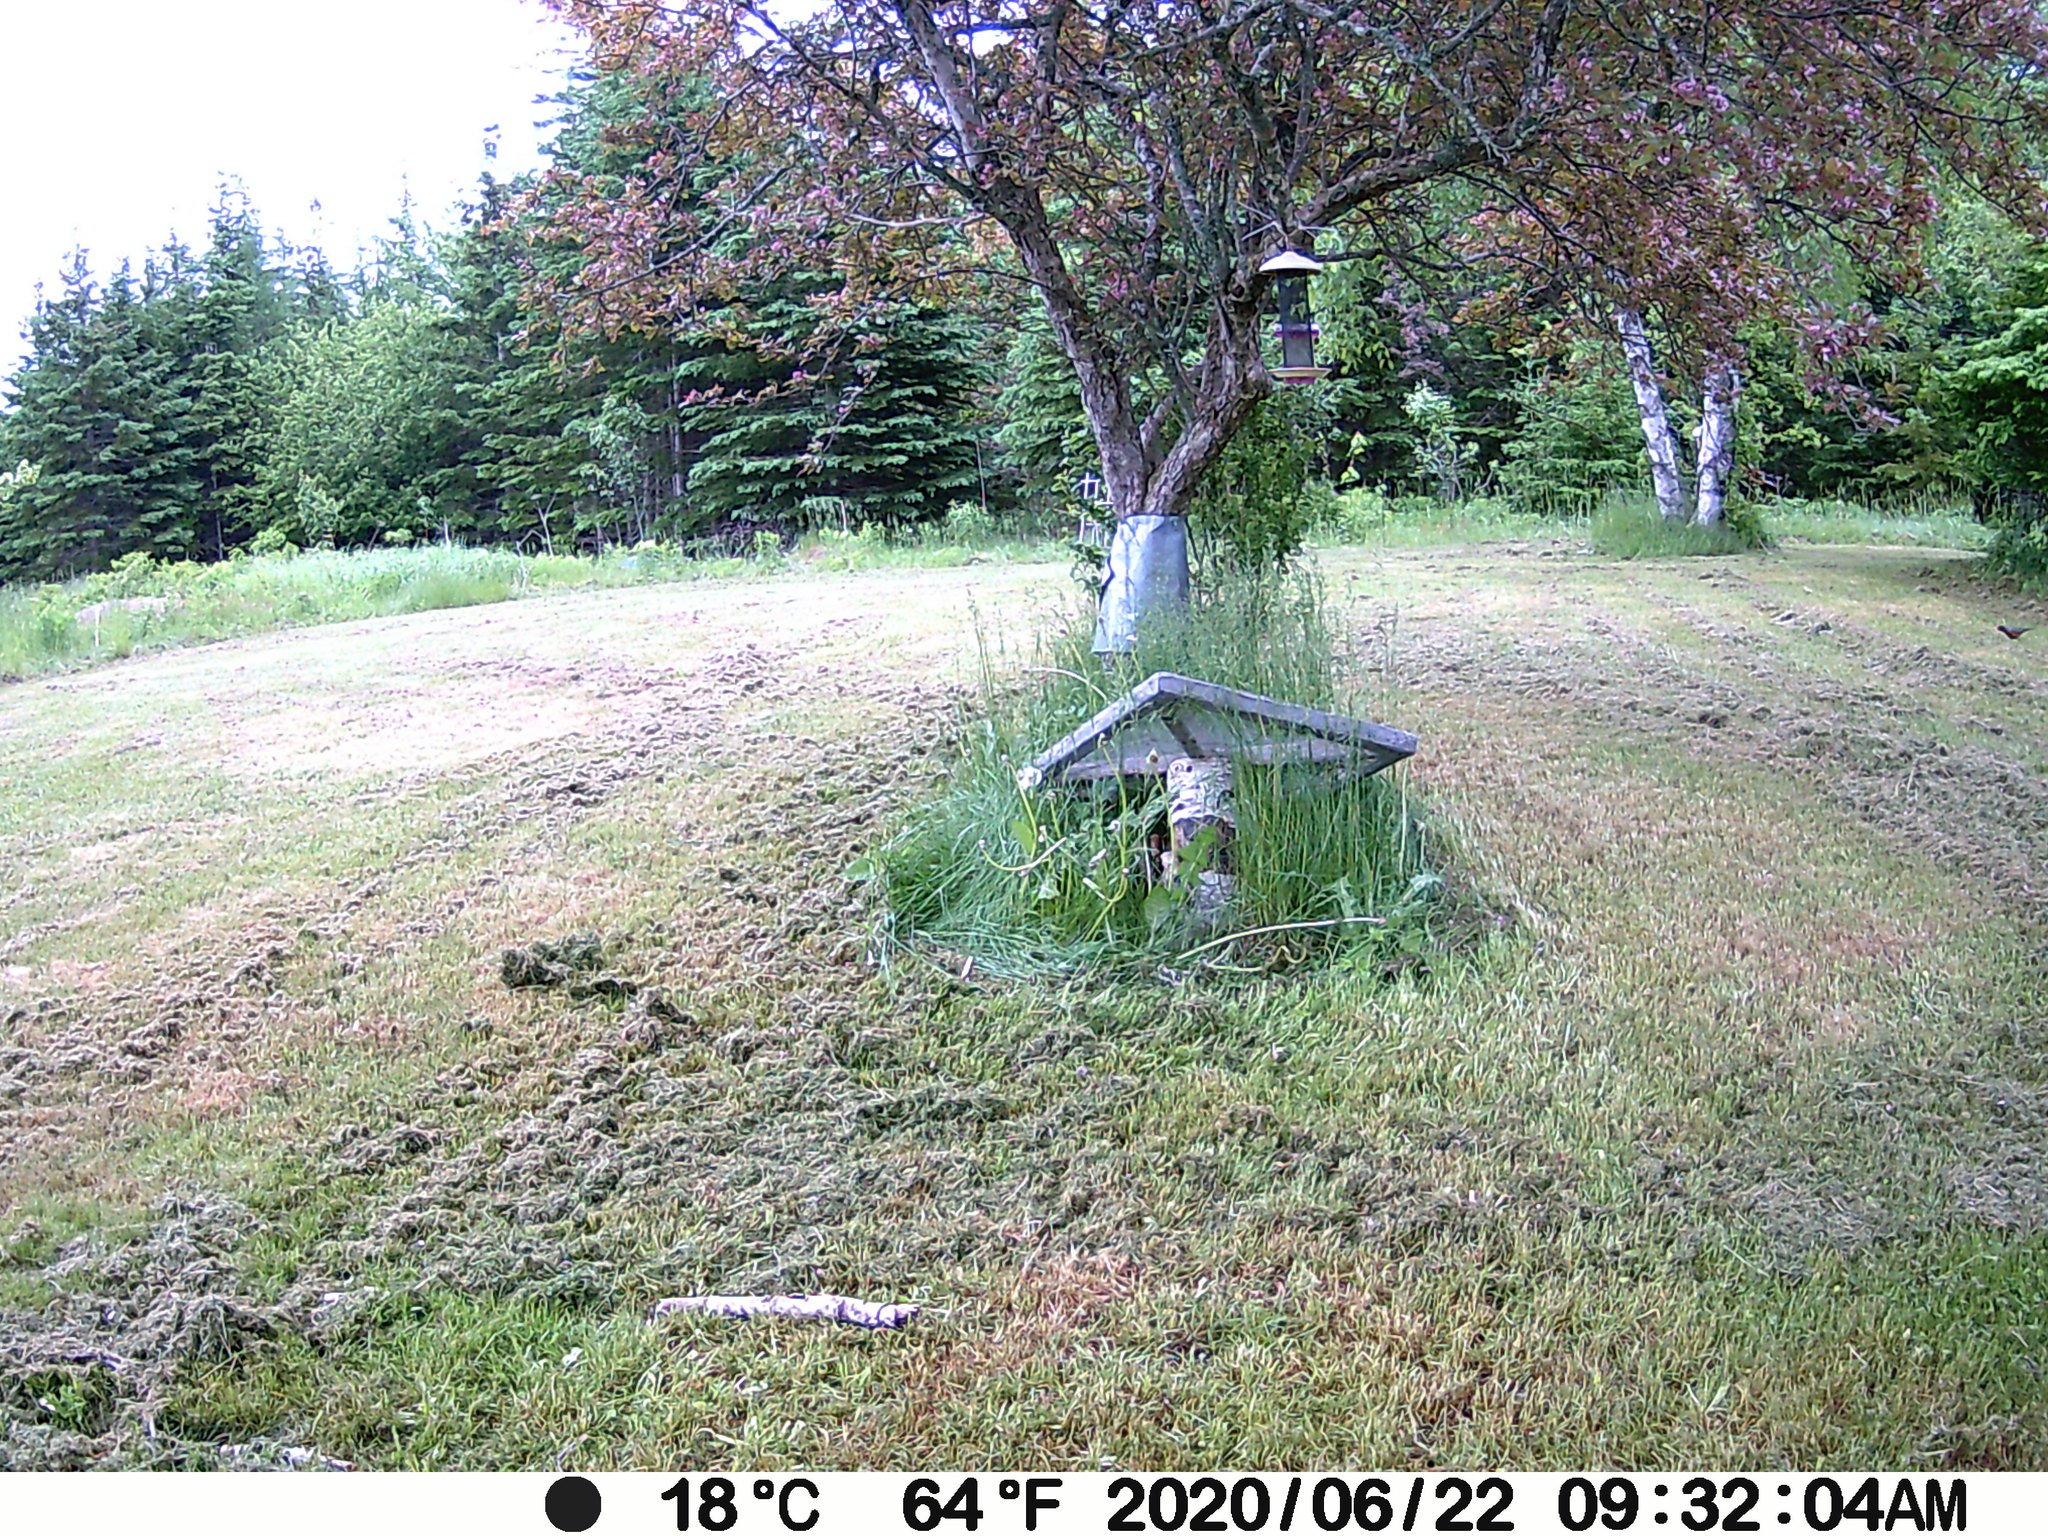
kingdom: Animalia
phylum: Chordata
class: Aves
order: Passeriformes
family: Turdidae
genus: Turdus
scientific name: Turdus migratorius
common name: American robin
